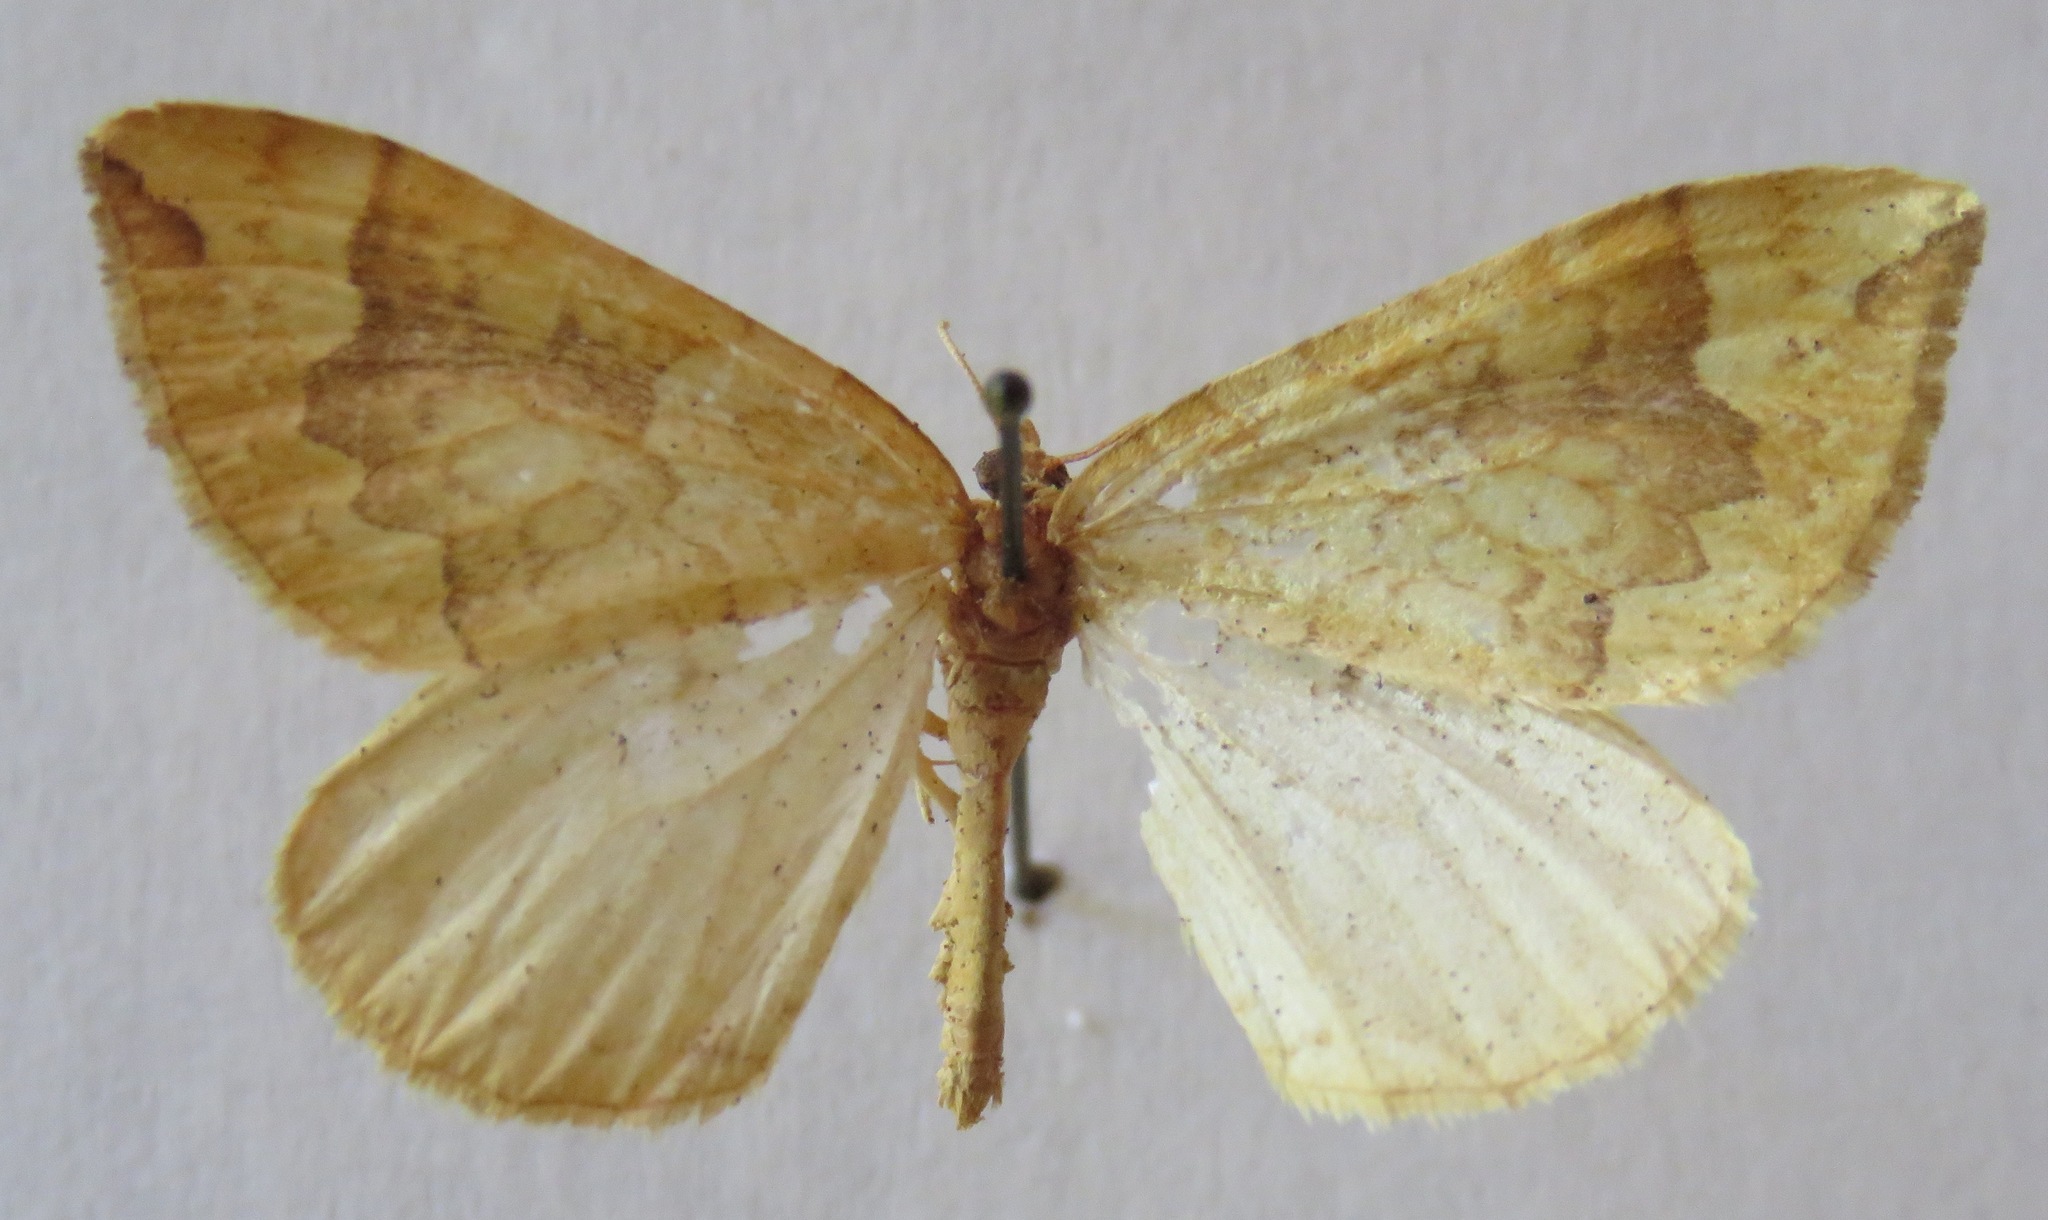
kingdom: Animalia
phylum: Arthropoda
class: Insecta
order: Lepidoptera
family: Geometridae
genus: Eulithis
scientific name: Eulithis populata
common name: Northern spinach
